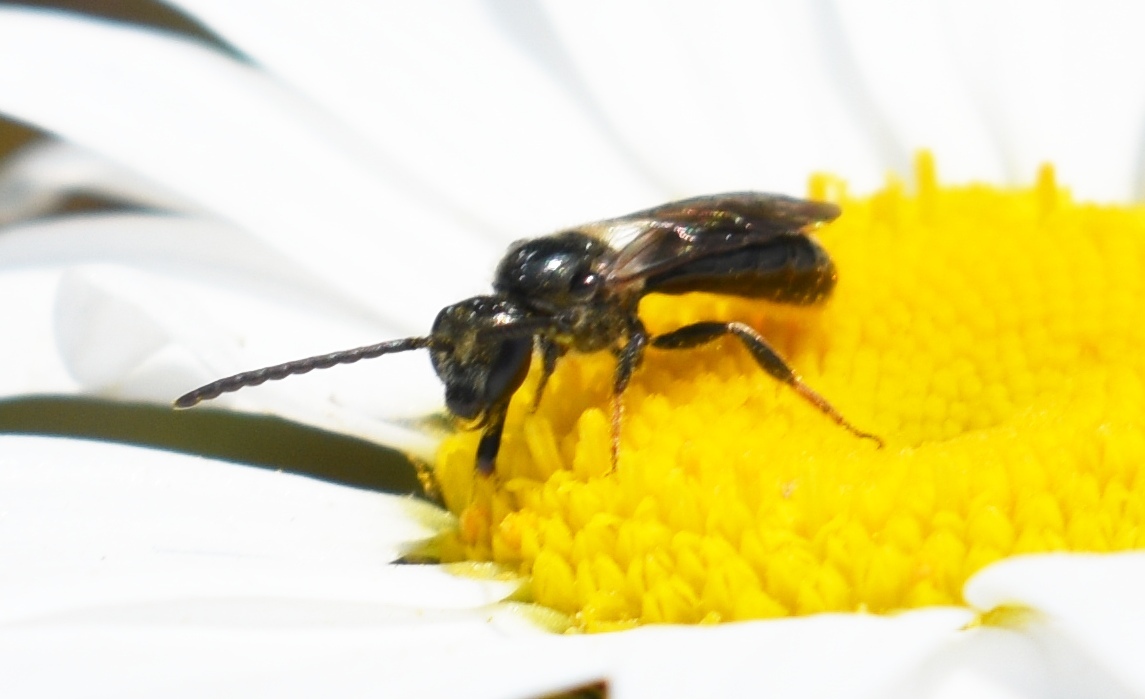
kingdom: Animalia
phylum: Arthropoda
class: Insecta
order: Hymenoptera
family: Halictidae
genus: Dialictus
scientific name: Dialictus
